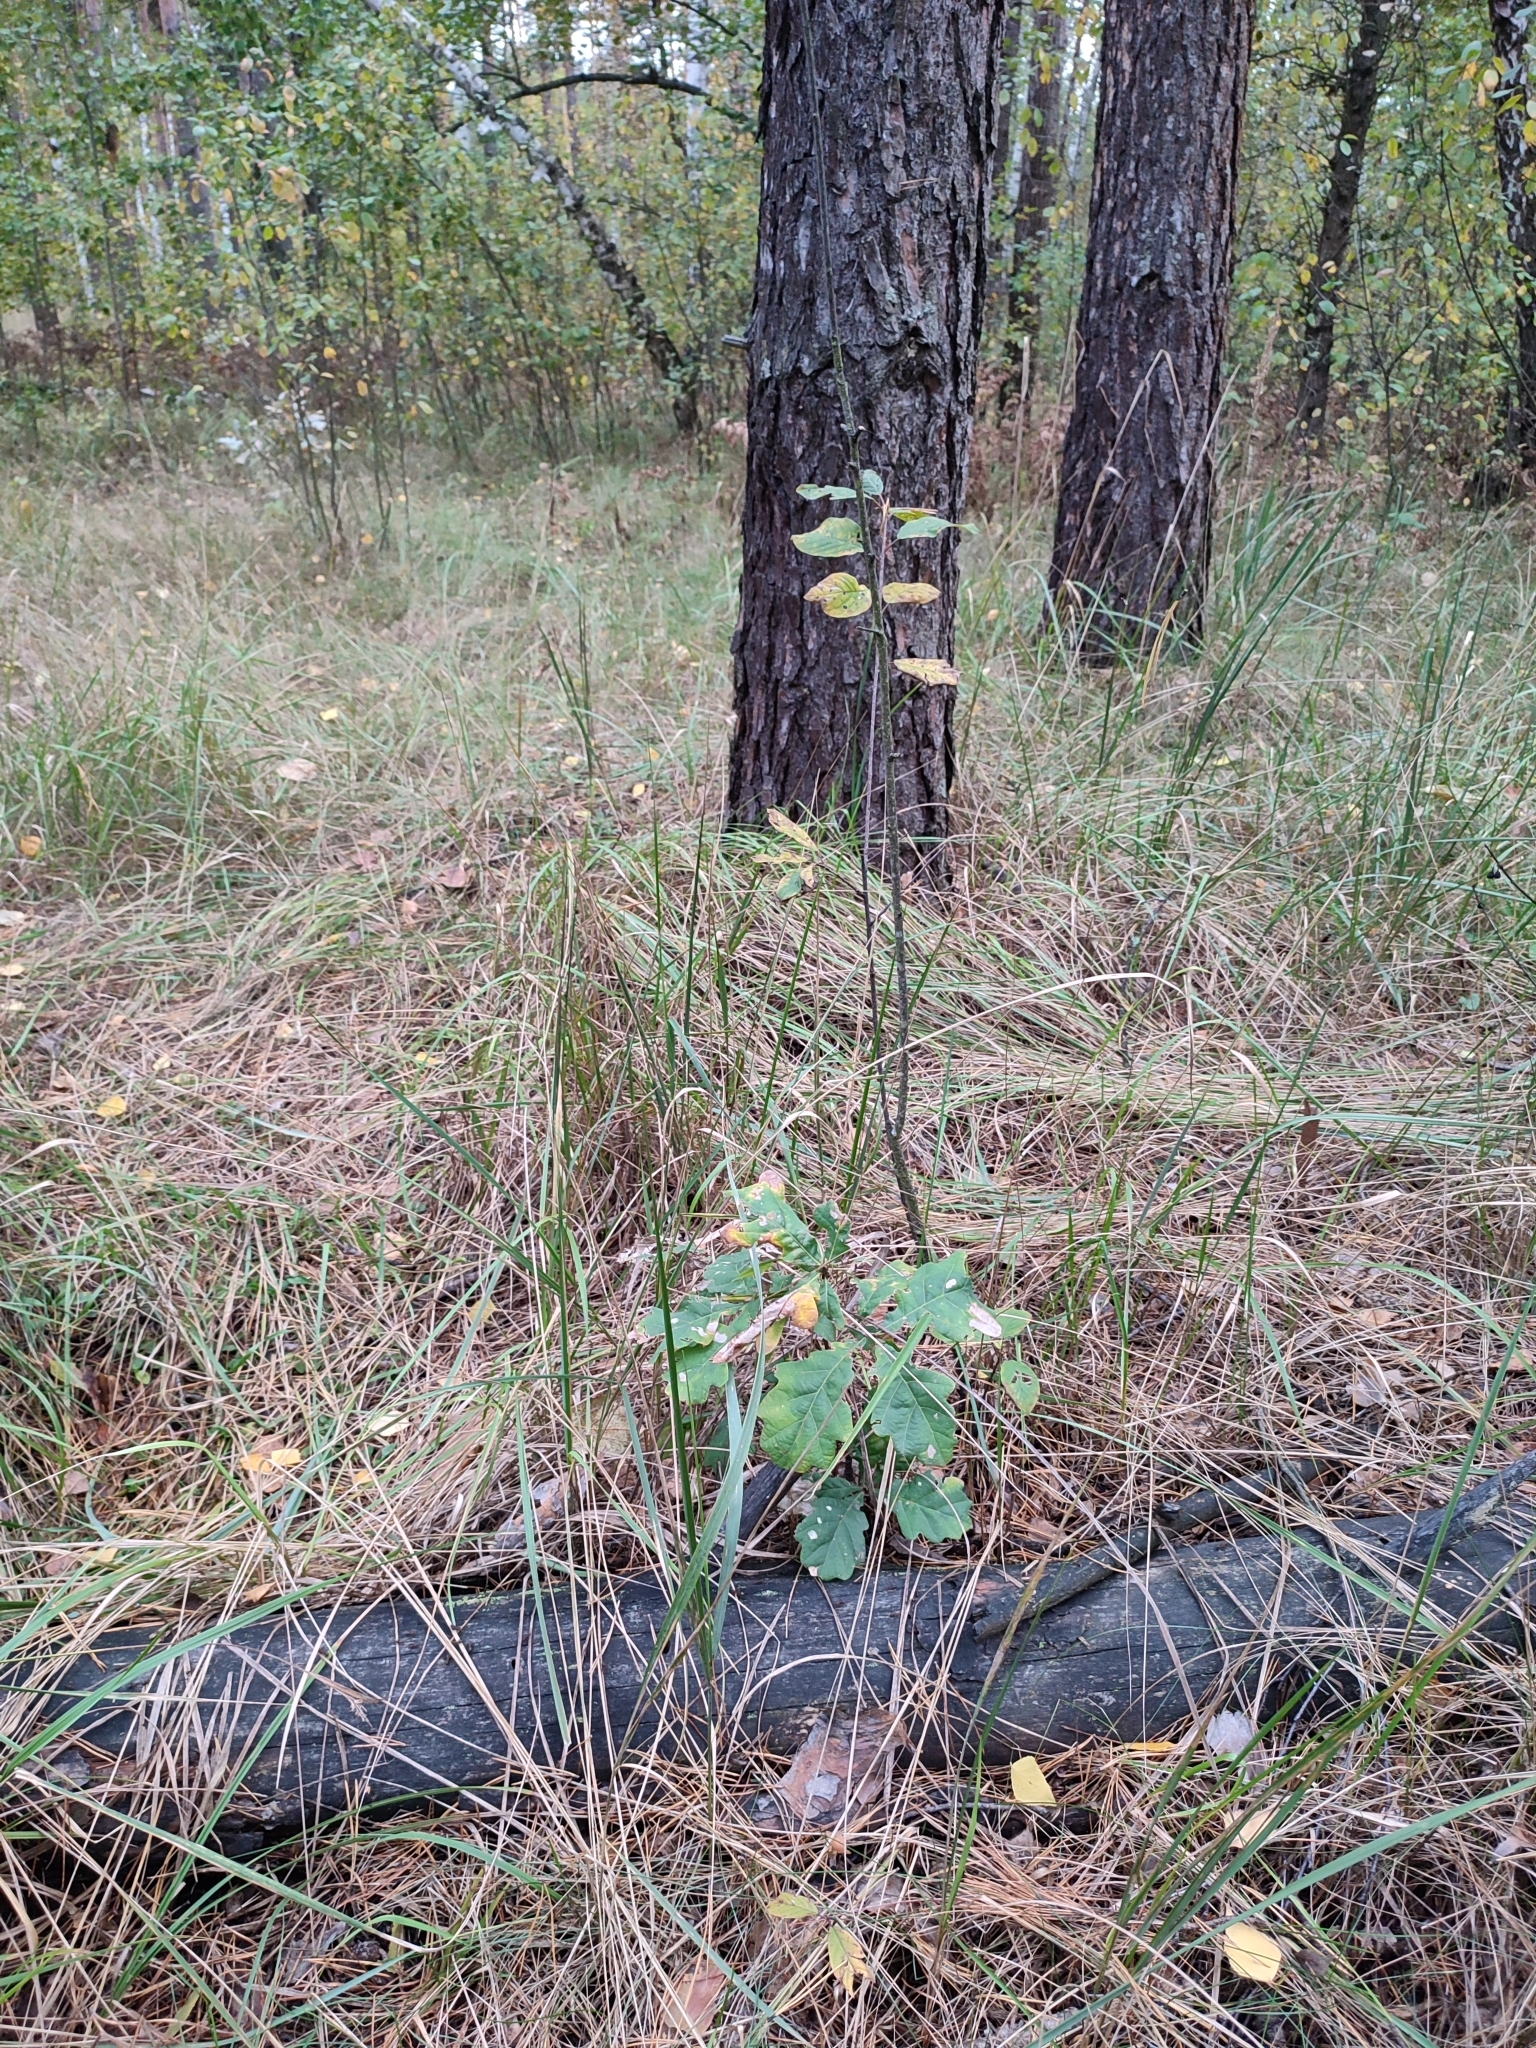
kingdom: Plantae
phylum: Tracheophyta
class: Magnoliopsida
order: Fagales
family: Fagaceae
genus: Quercus
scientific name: Quercus robur
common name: Pedunculate oak
